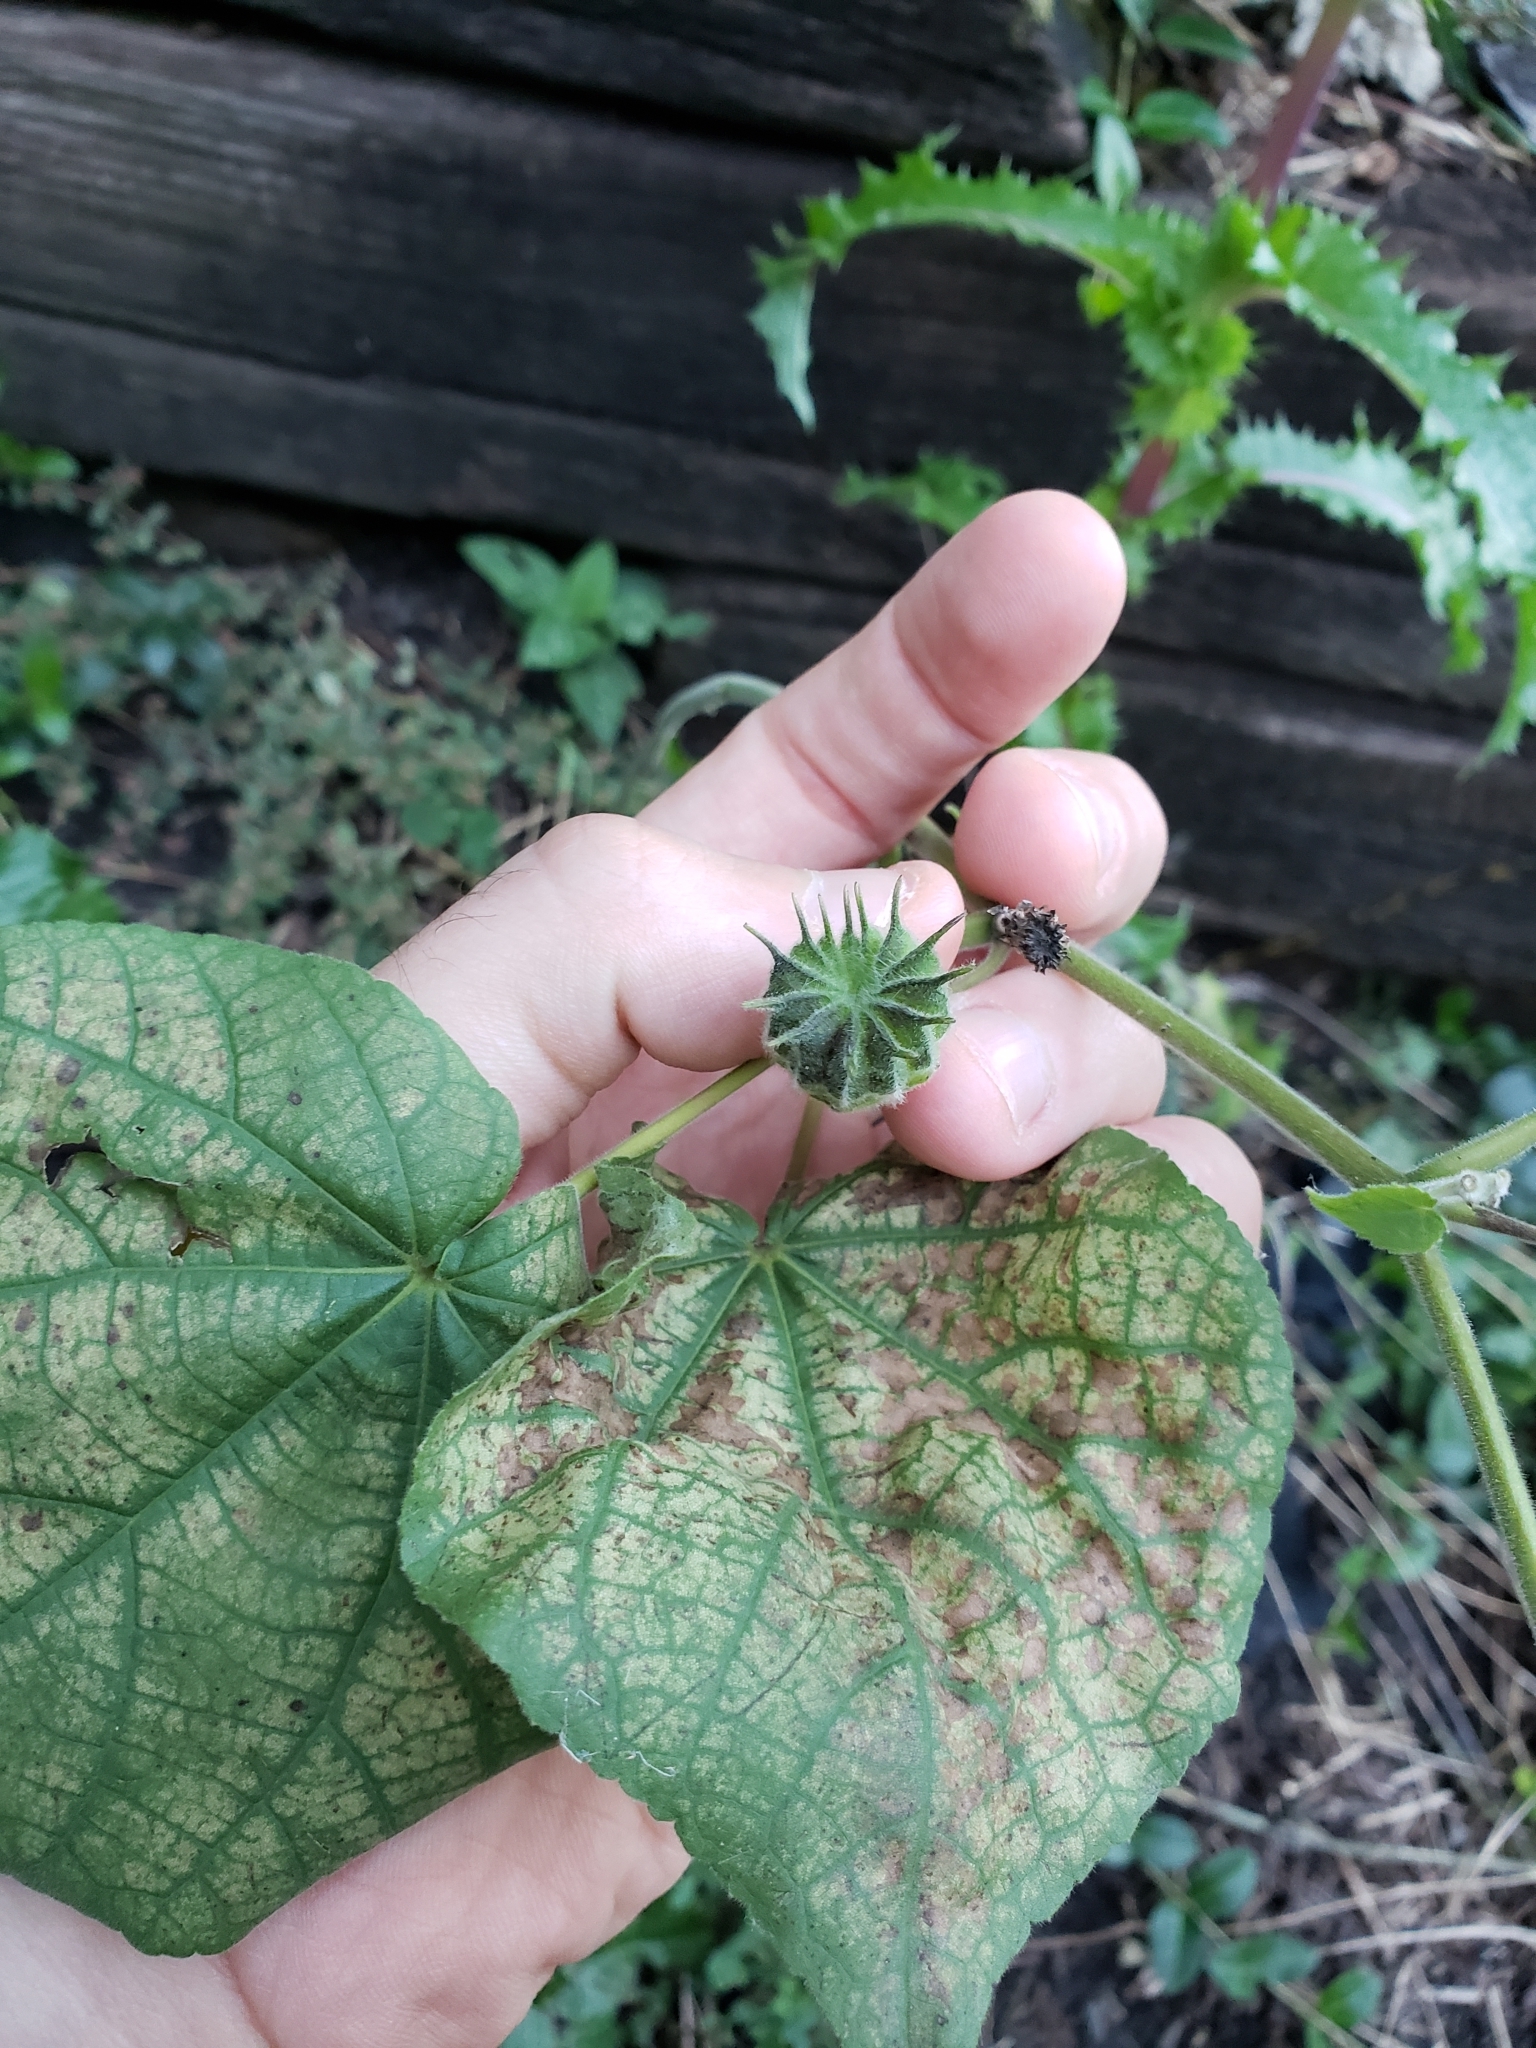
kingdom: Plantae
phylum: Tracheophyta
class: Magnoliopsida
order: Malvales
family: Malvaceae
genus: Abutilon
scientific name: Abutilon theophrasti
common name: Velvetleaf
